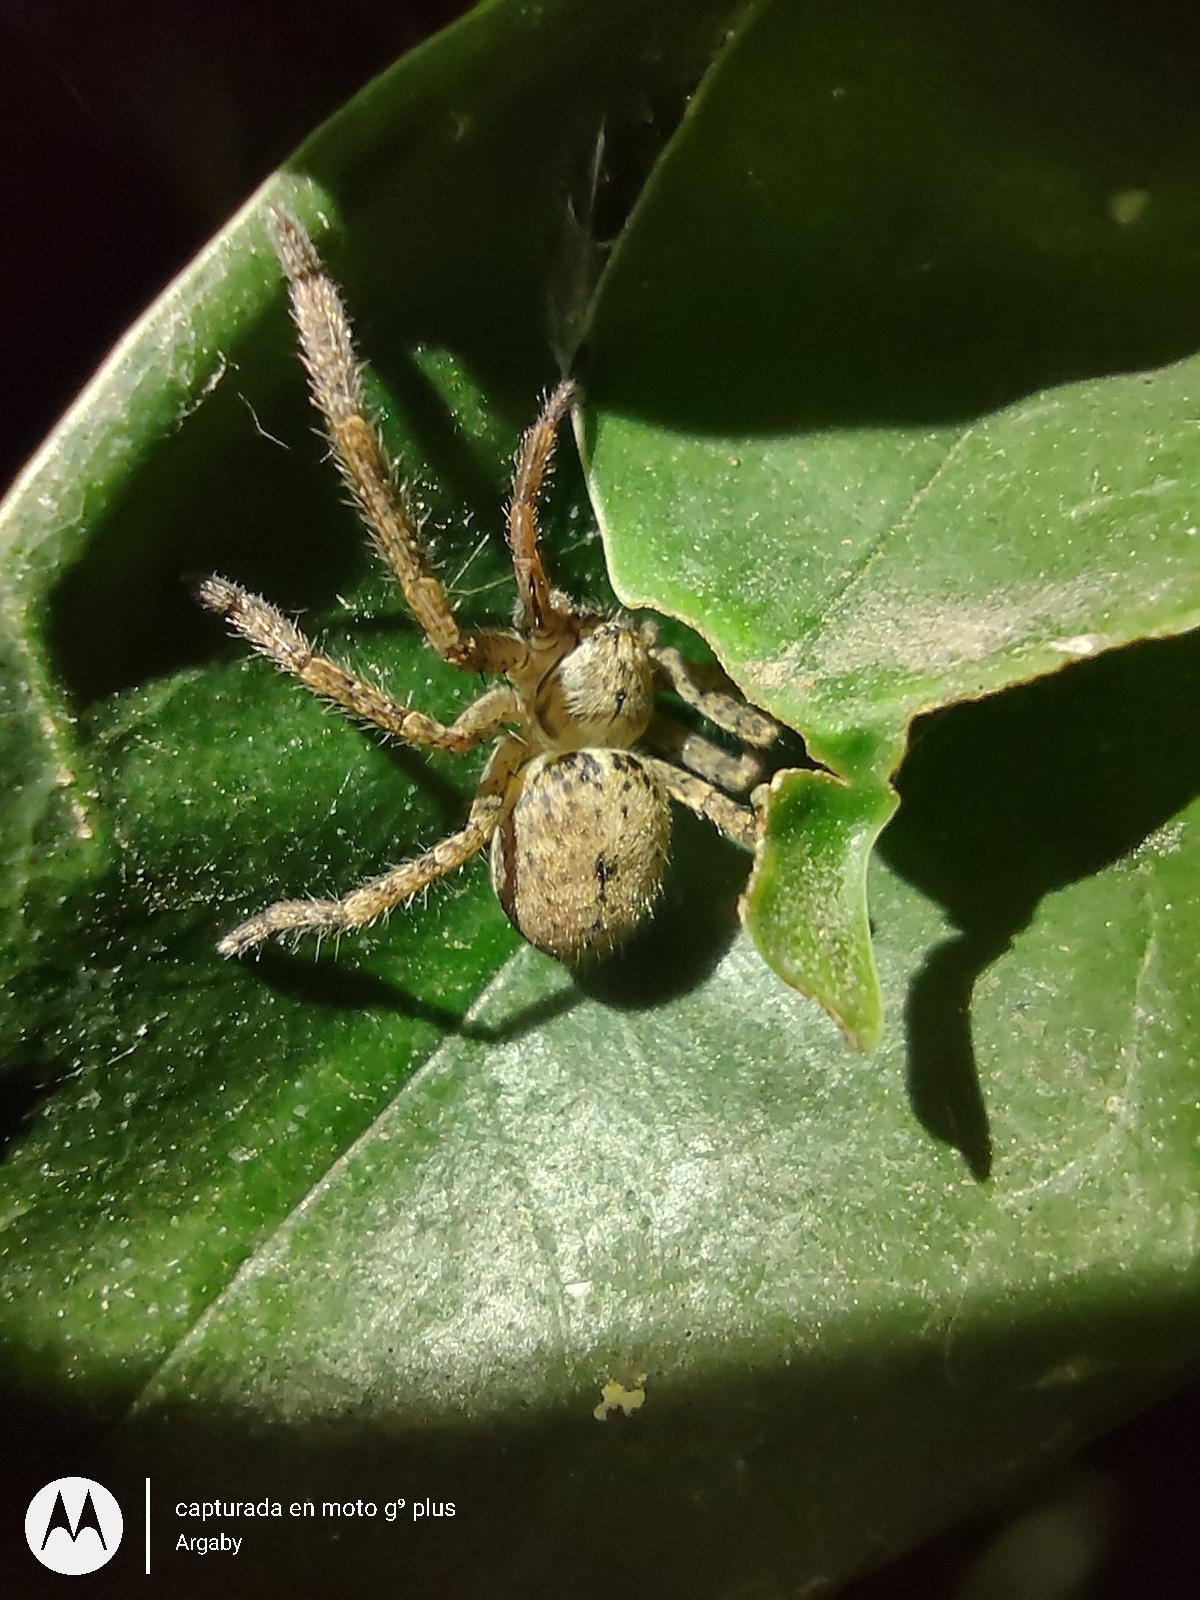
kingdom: Animalia
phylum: Arthropoda
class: Arachnida
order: Araneae
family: Sparassidae
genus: Polybetes
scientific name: Polybetes rapidus
